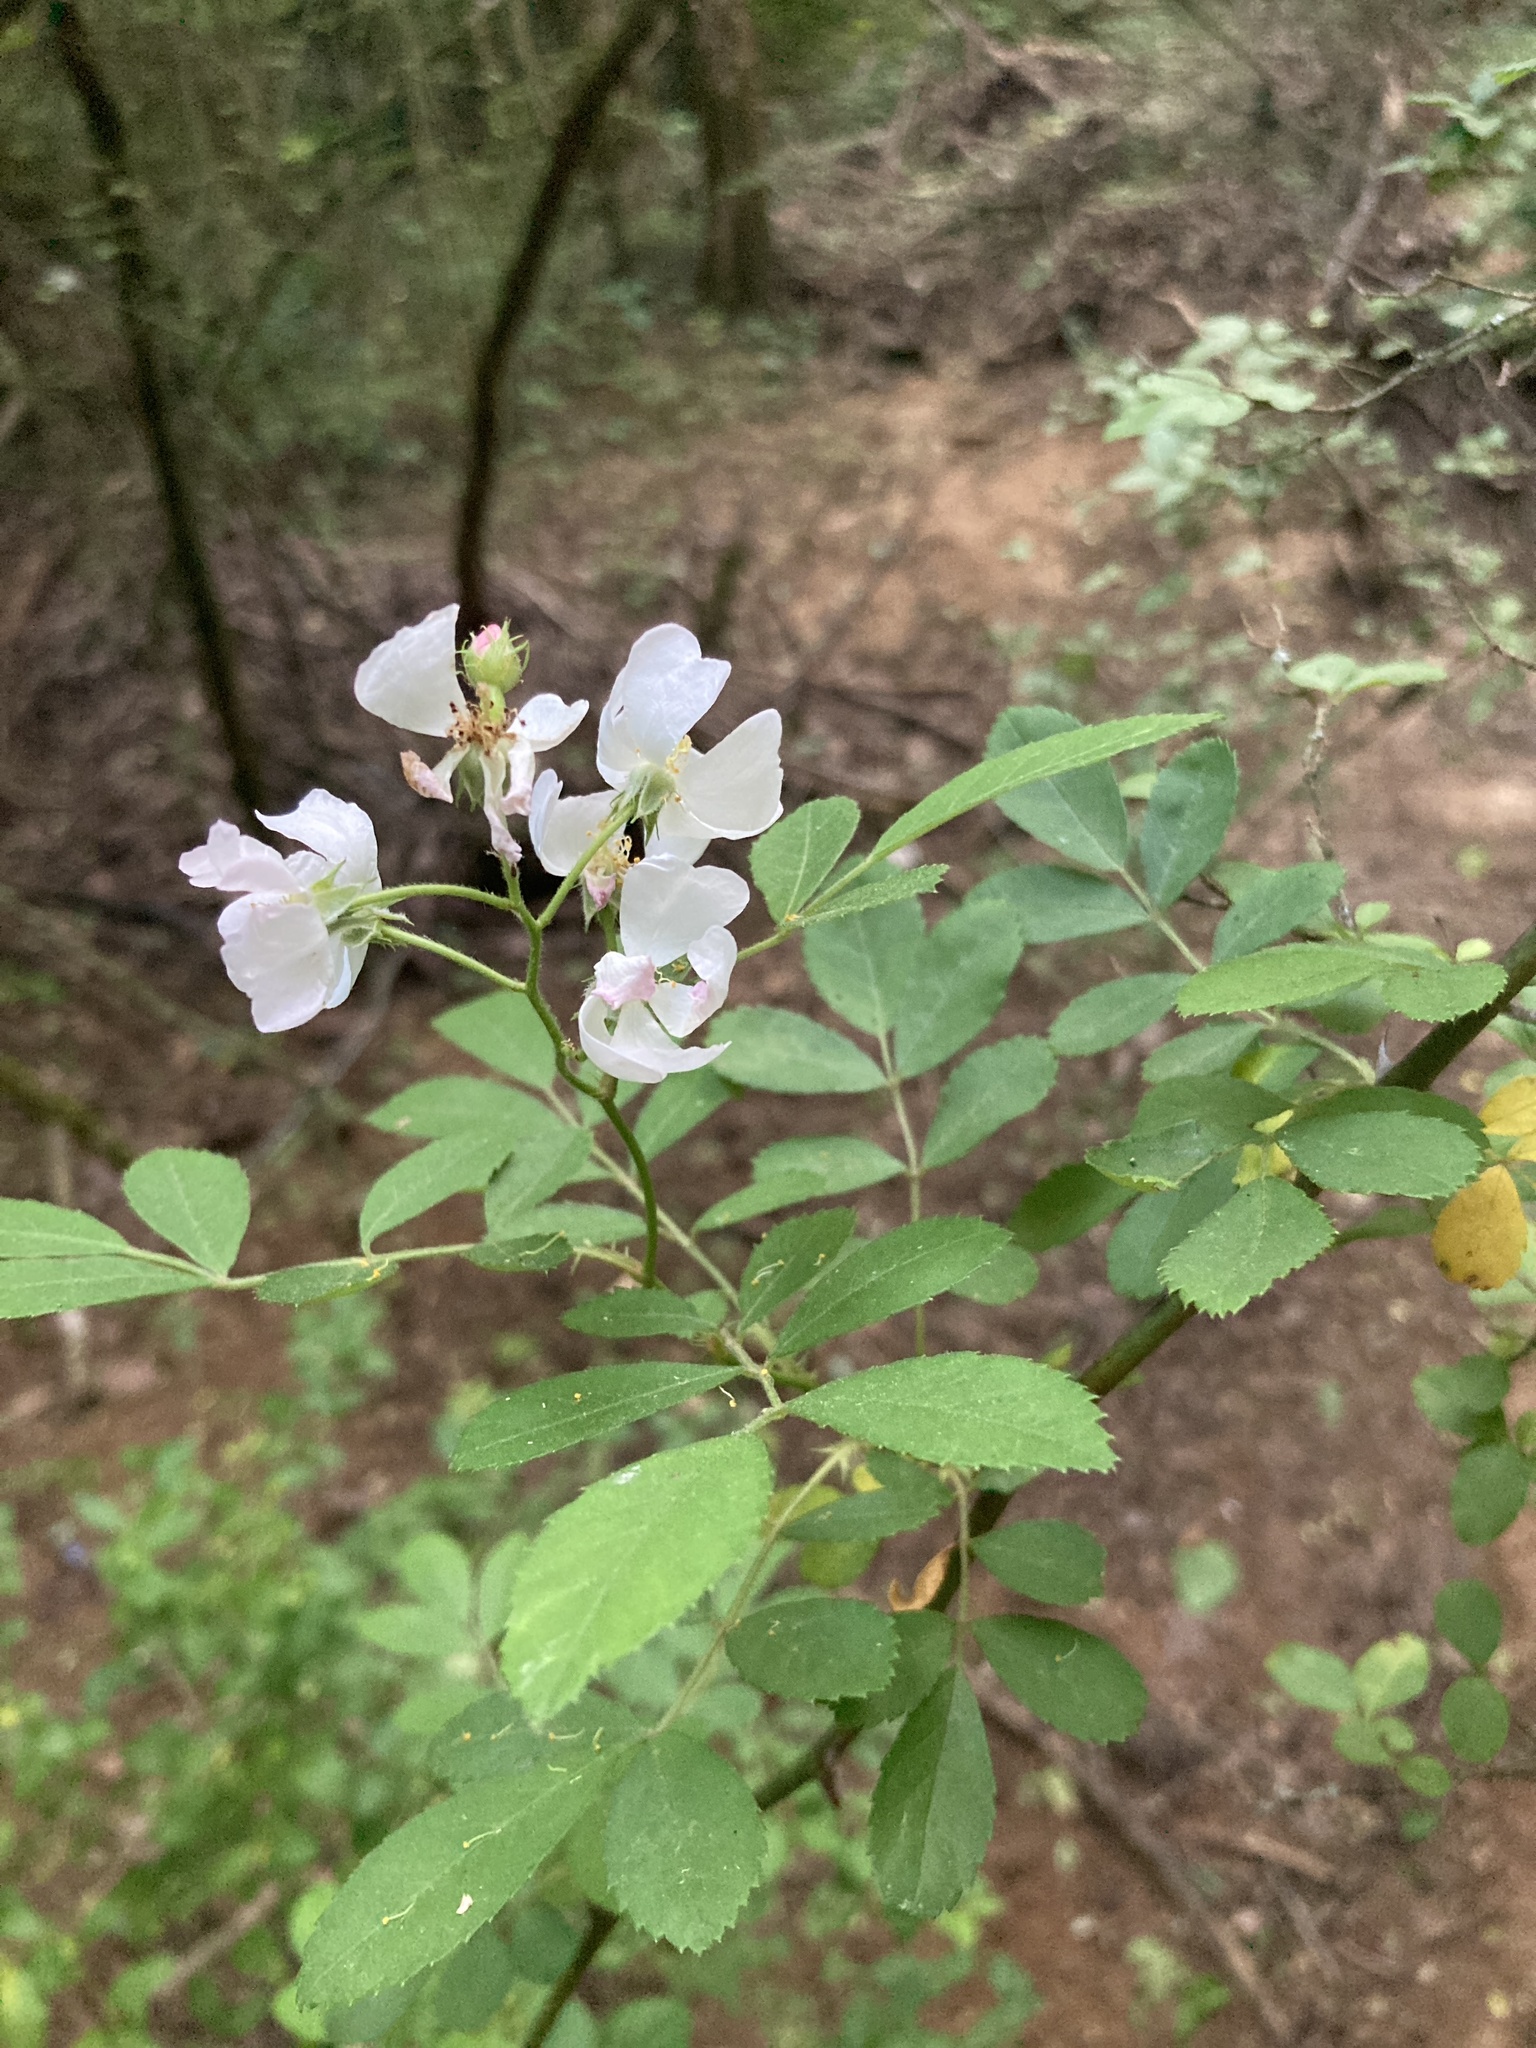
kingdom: Plantae
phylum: Tracheophyta
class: Magnoliopsida
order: Rosales
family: Rosaceae
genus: Rosa
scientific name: Rosa multiflora
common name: Multiflora rose
